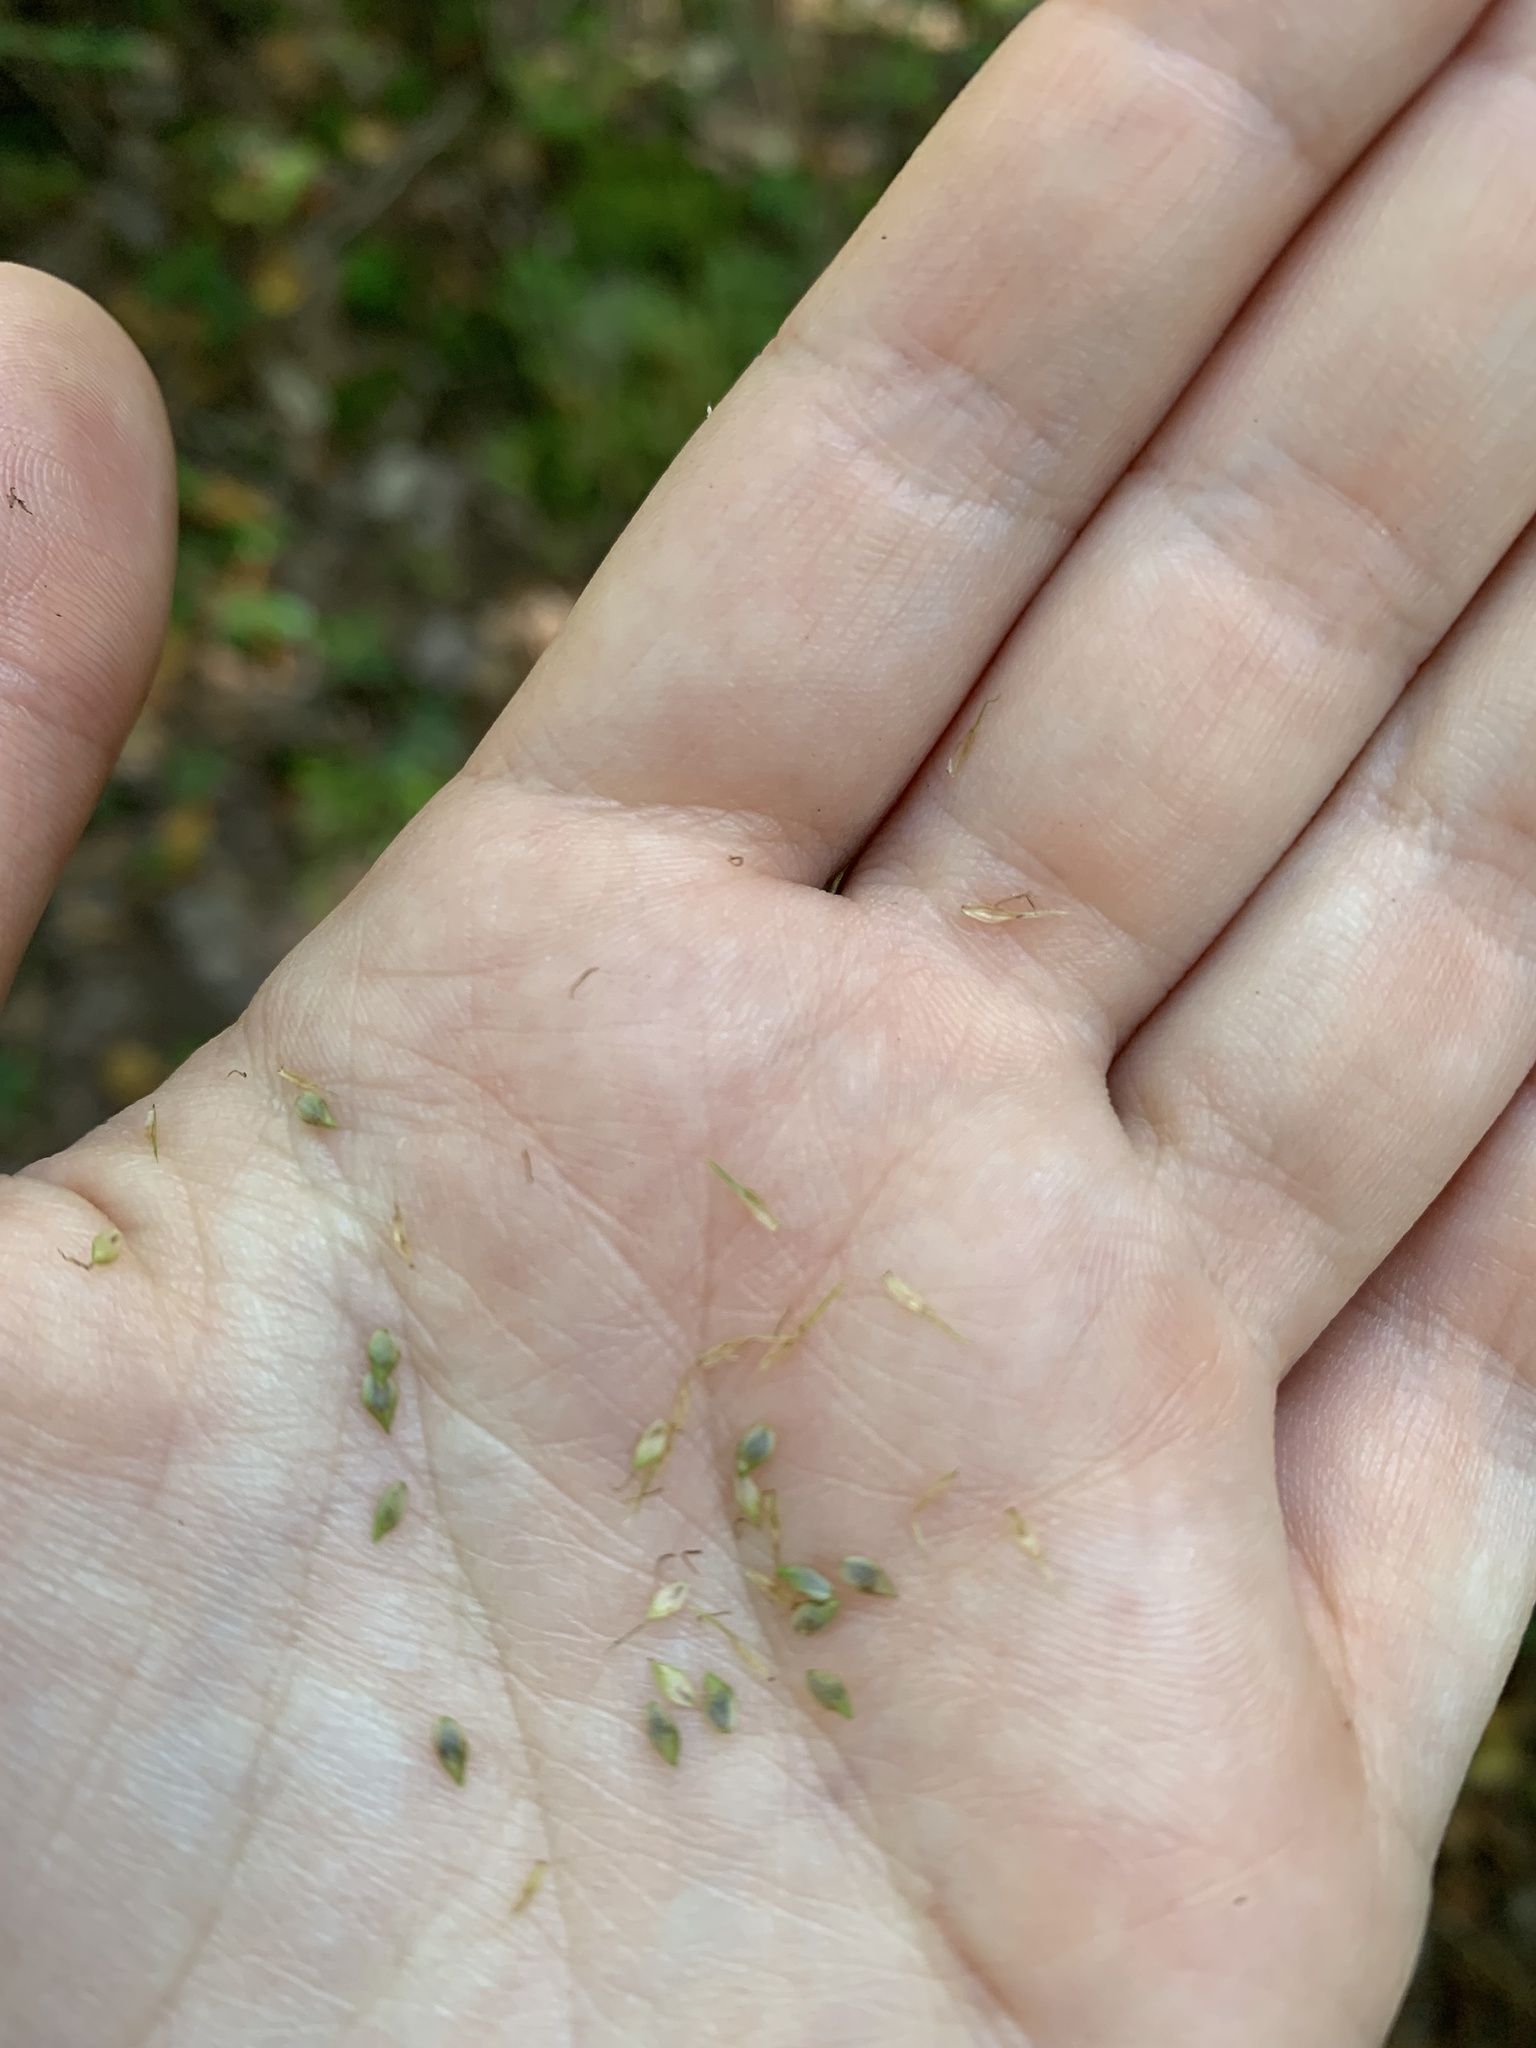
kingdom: Plantae
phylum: Tracheophyta
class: Liliopsida
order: Poales
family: Cyperaceae
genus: Carex
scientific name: Carex gynandra
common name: Nodding sedge
